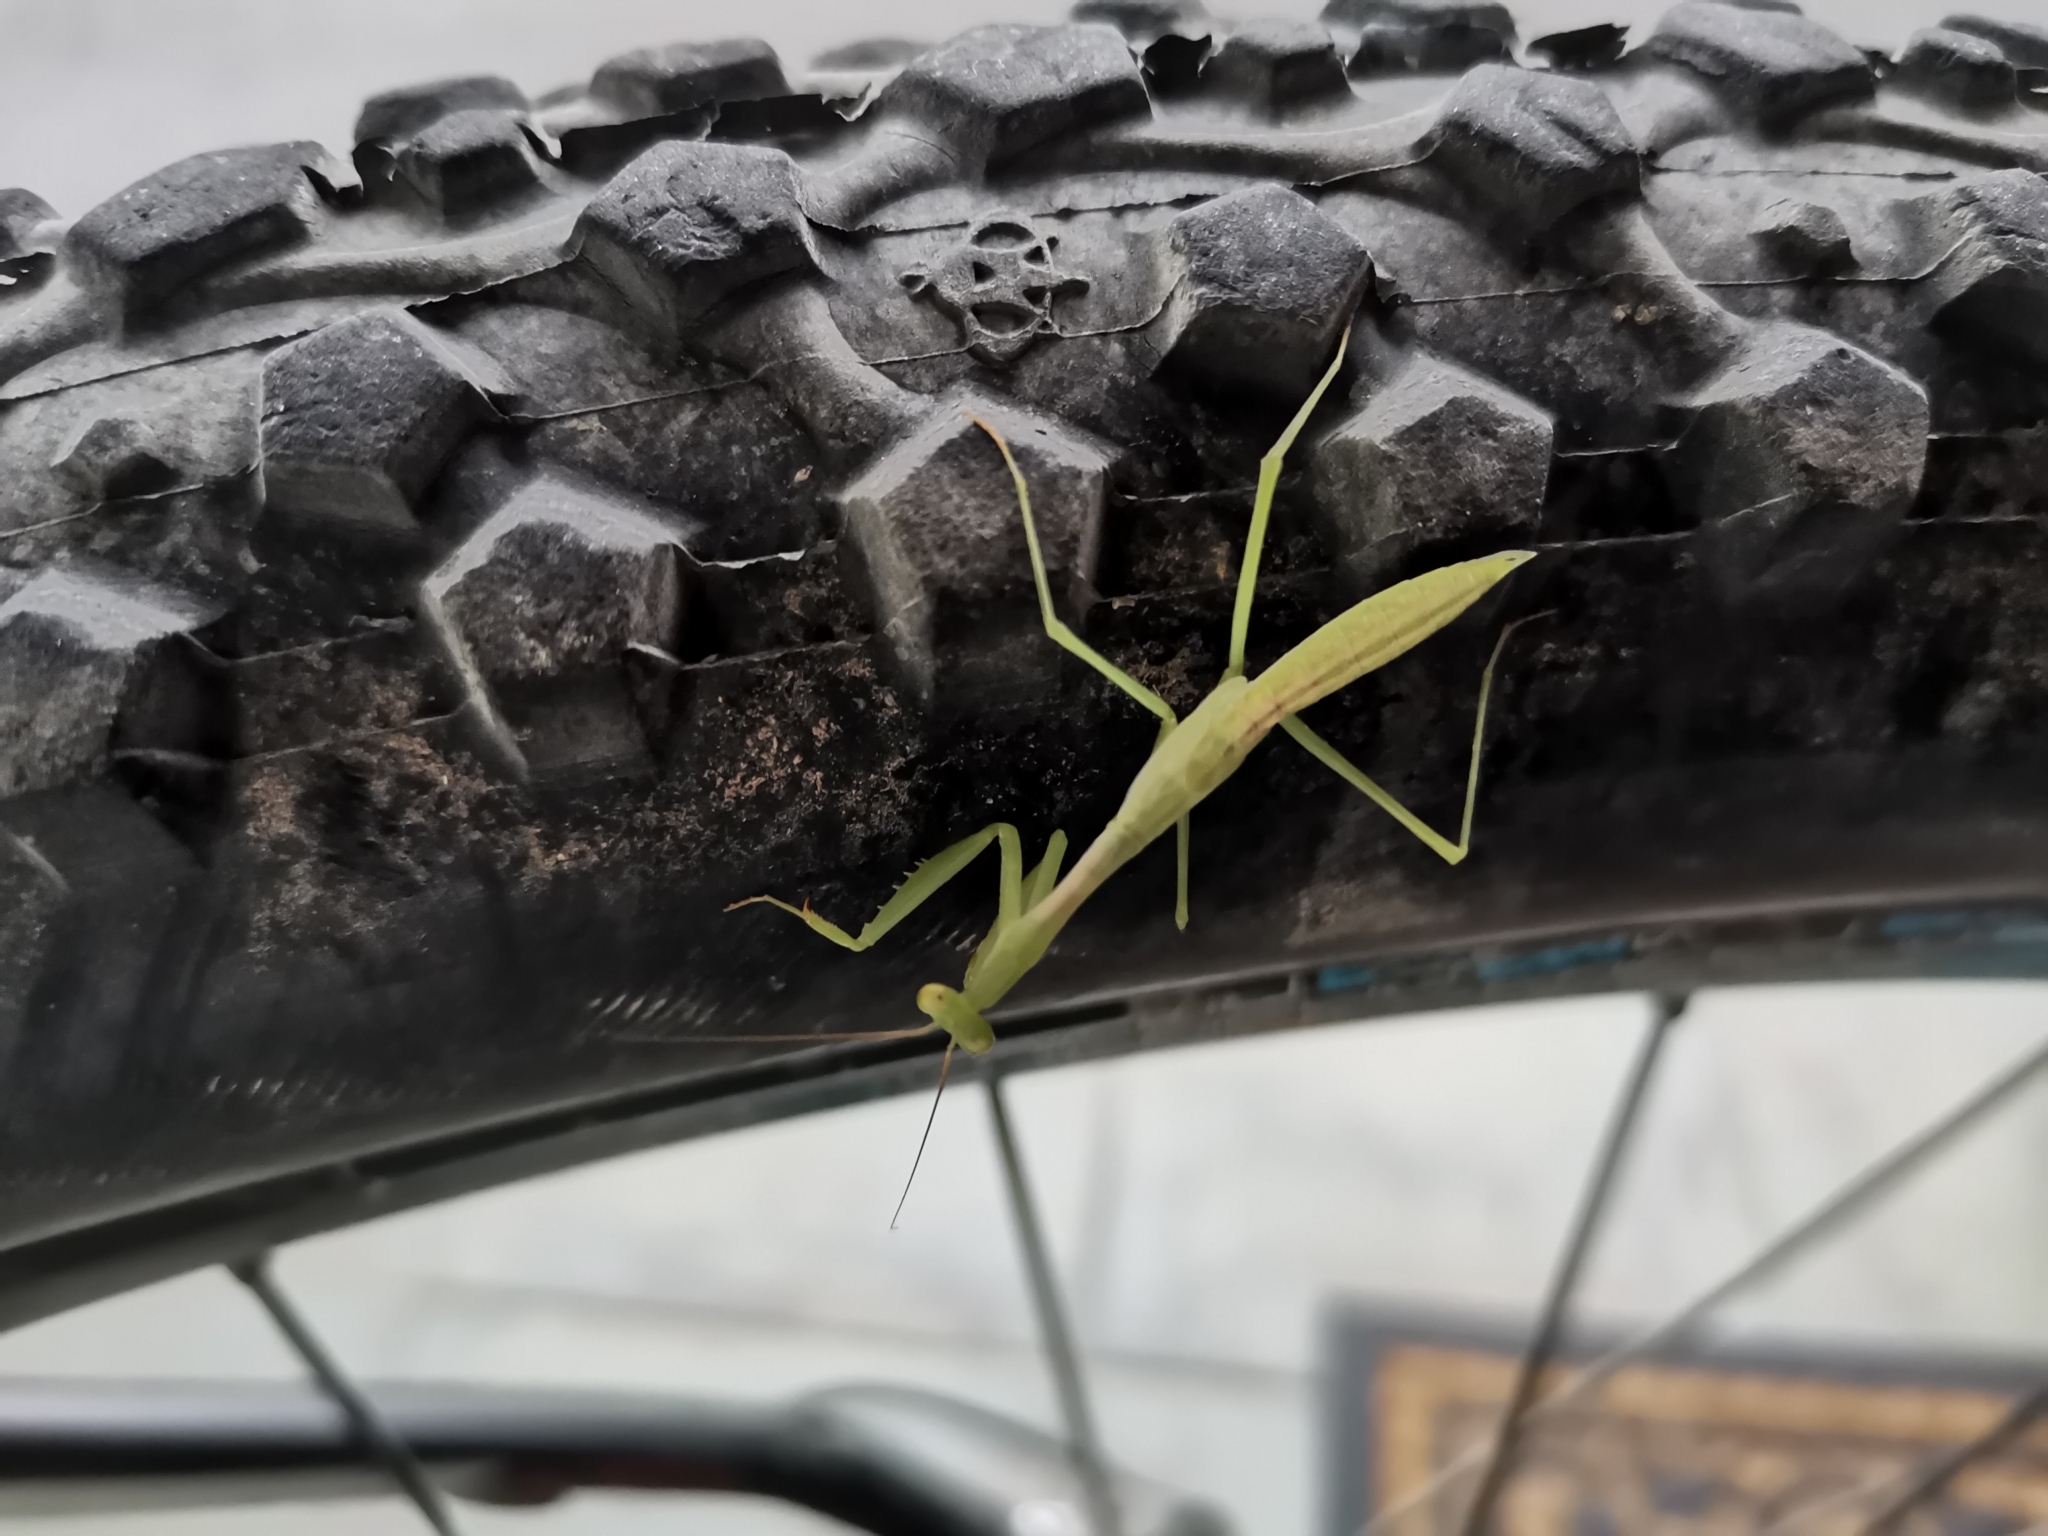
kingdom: Animalia
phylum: Arthropoda
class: Insecta
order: Mantodea
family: Miomantidae
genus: Miomantis
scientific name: Miomantis caffra
